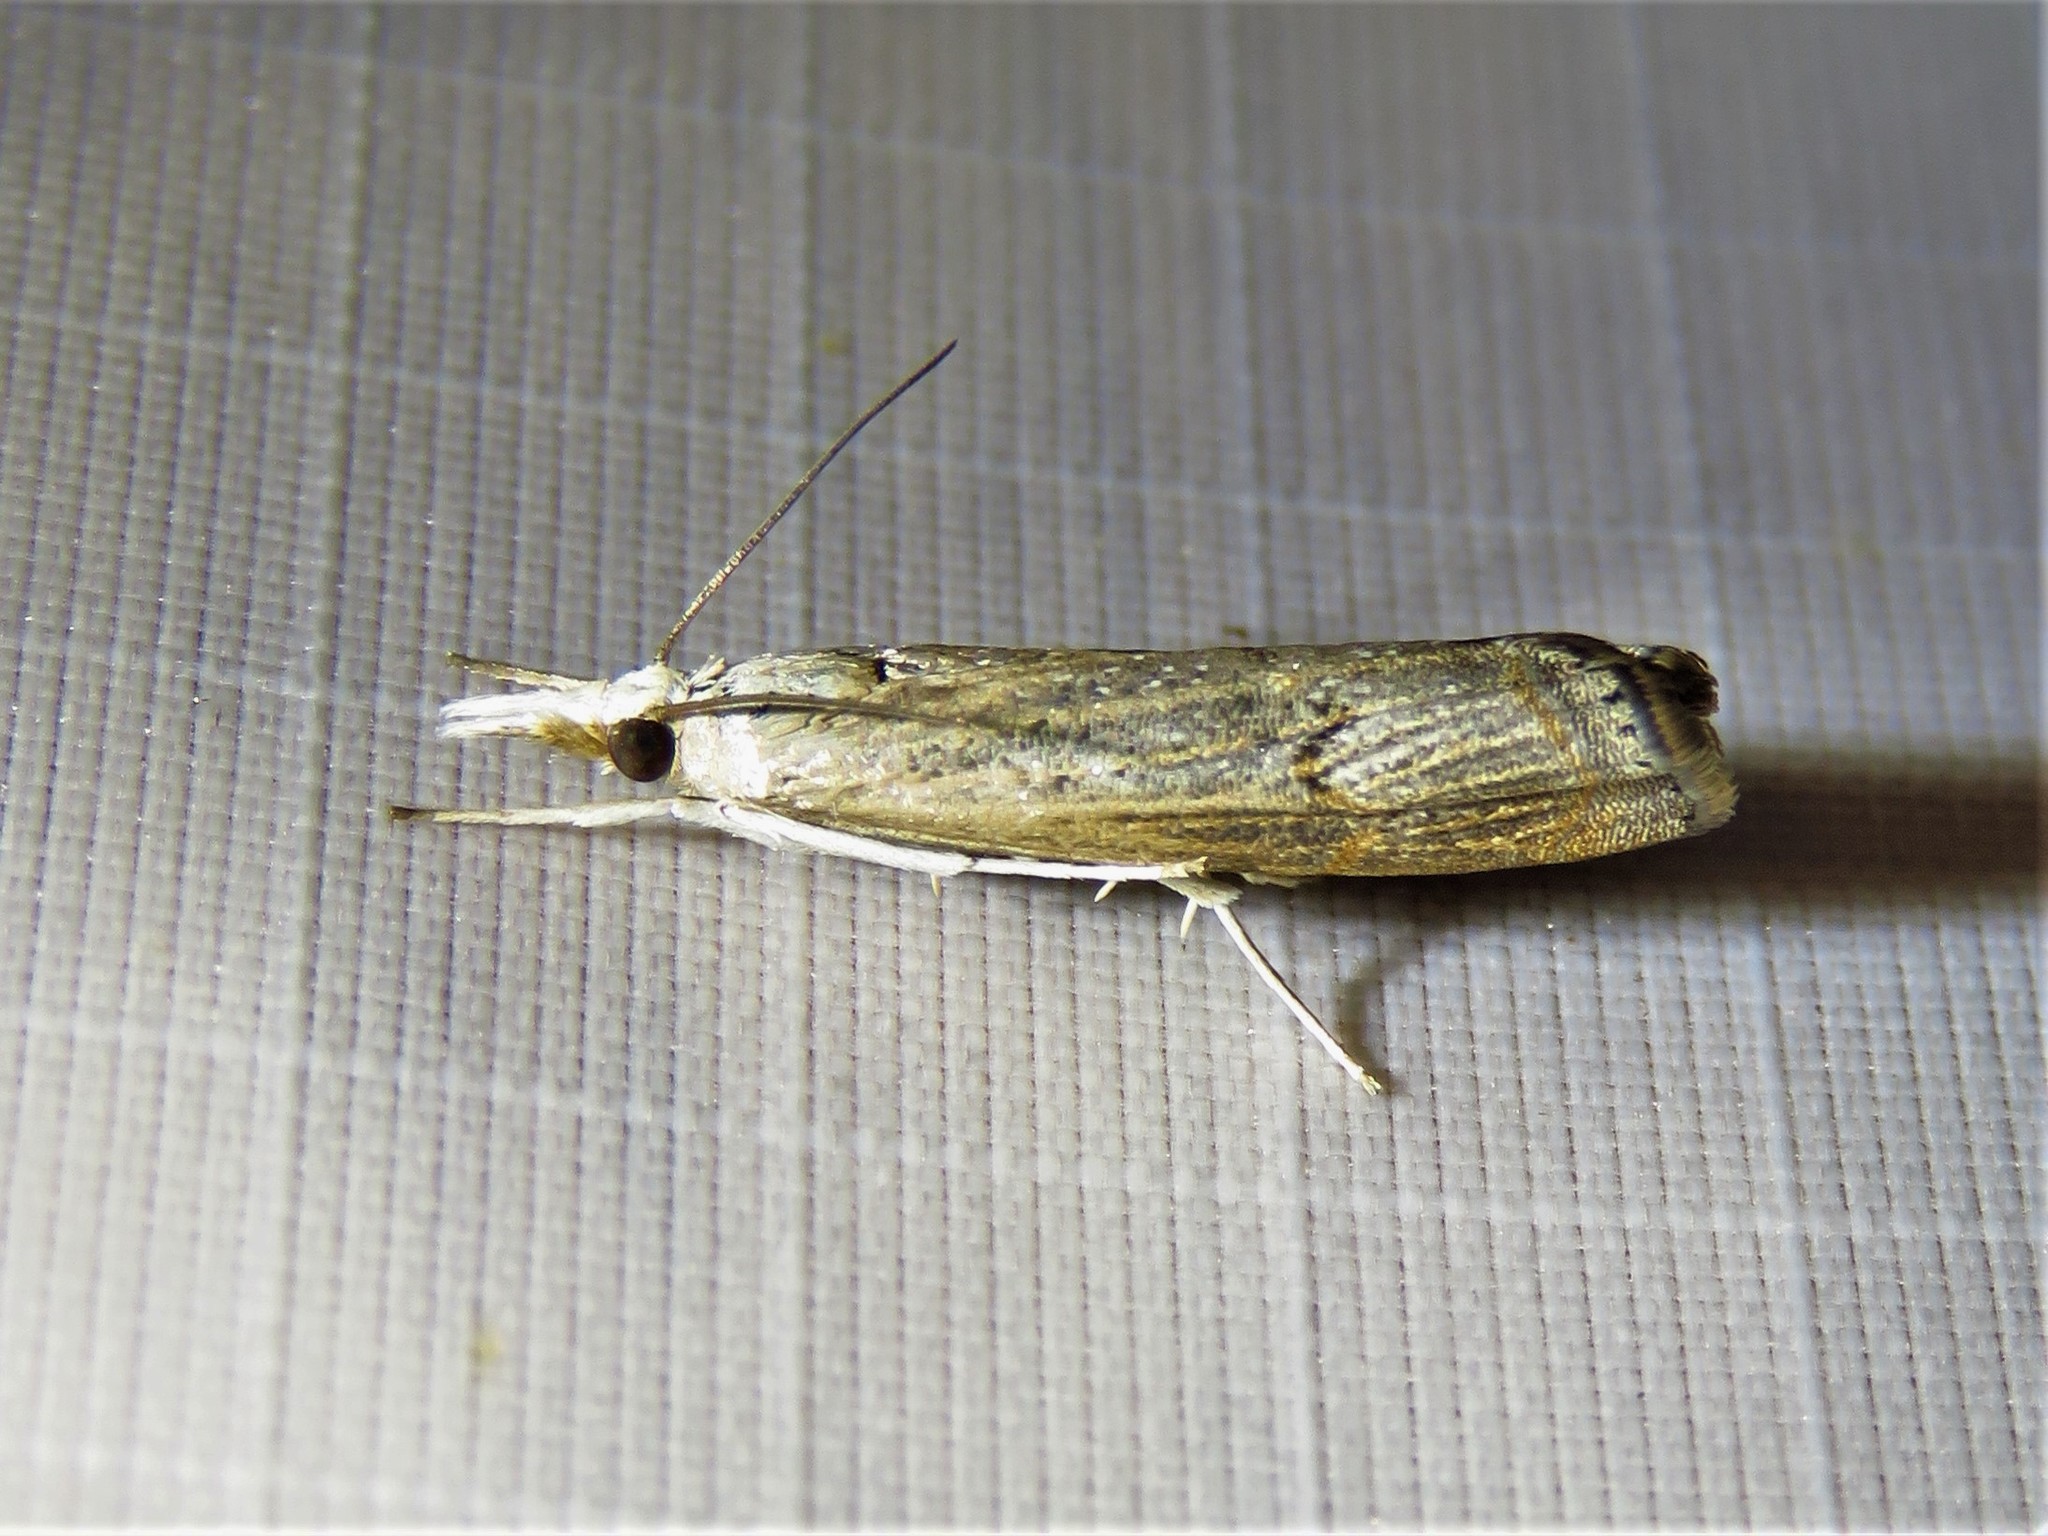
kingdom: Animalia
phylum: Arthropoda
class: Insecta
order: Lepidoptera
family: Crambidae
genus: Parapediasia
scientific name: Parapediasia teterellus
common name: Bluegrass webworm moth
